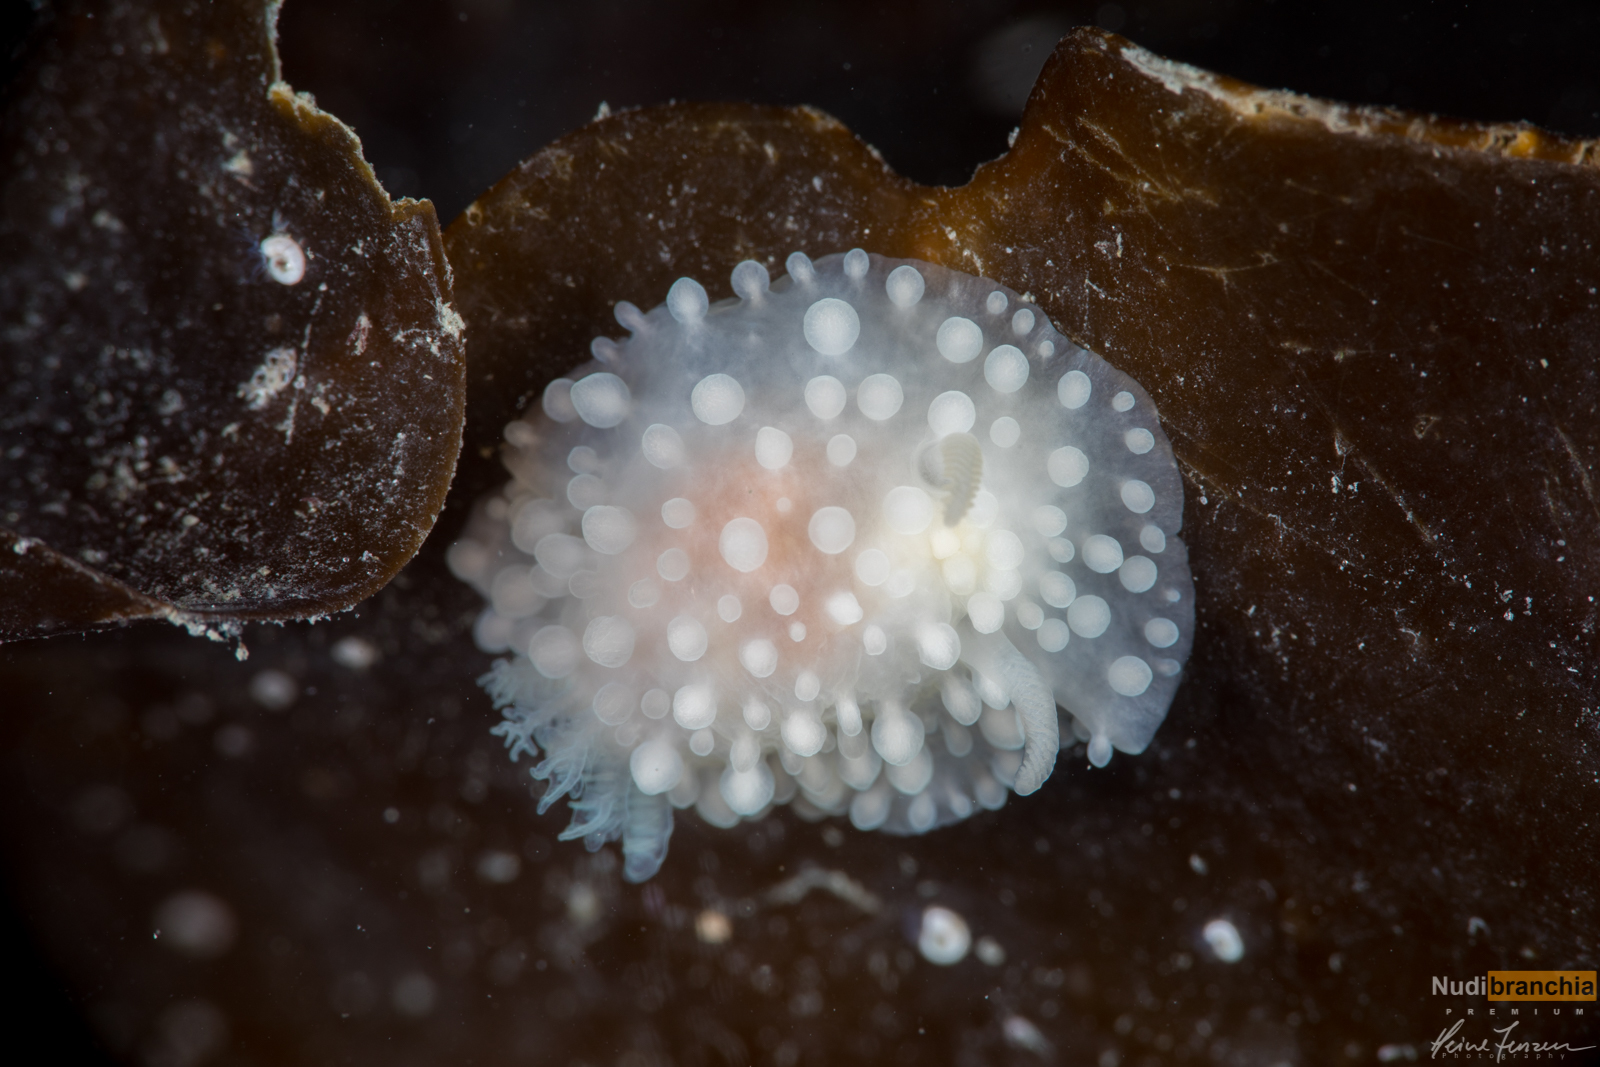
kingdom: Animalia
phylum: Mollusca
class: Gastropoda
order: Nudibranchia
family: Onchidorididae
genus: Adalaria
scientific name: Adalaria proxima
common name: False doris
